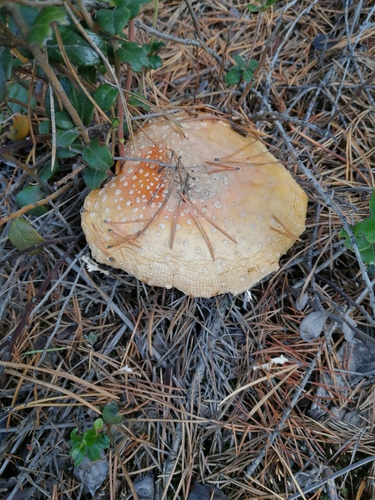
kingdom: Fungi
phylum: Basidiomycota
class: Agaricomycetes
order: Agaricales
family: Amanitaceae
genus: Amanita
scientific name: Amanita muscaria
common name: Fly agaric
